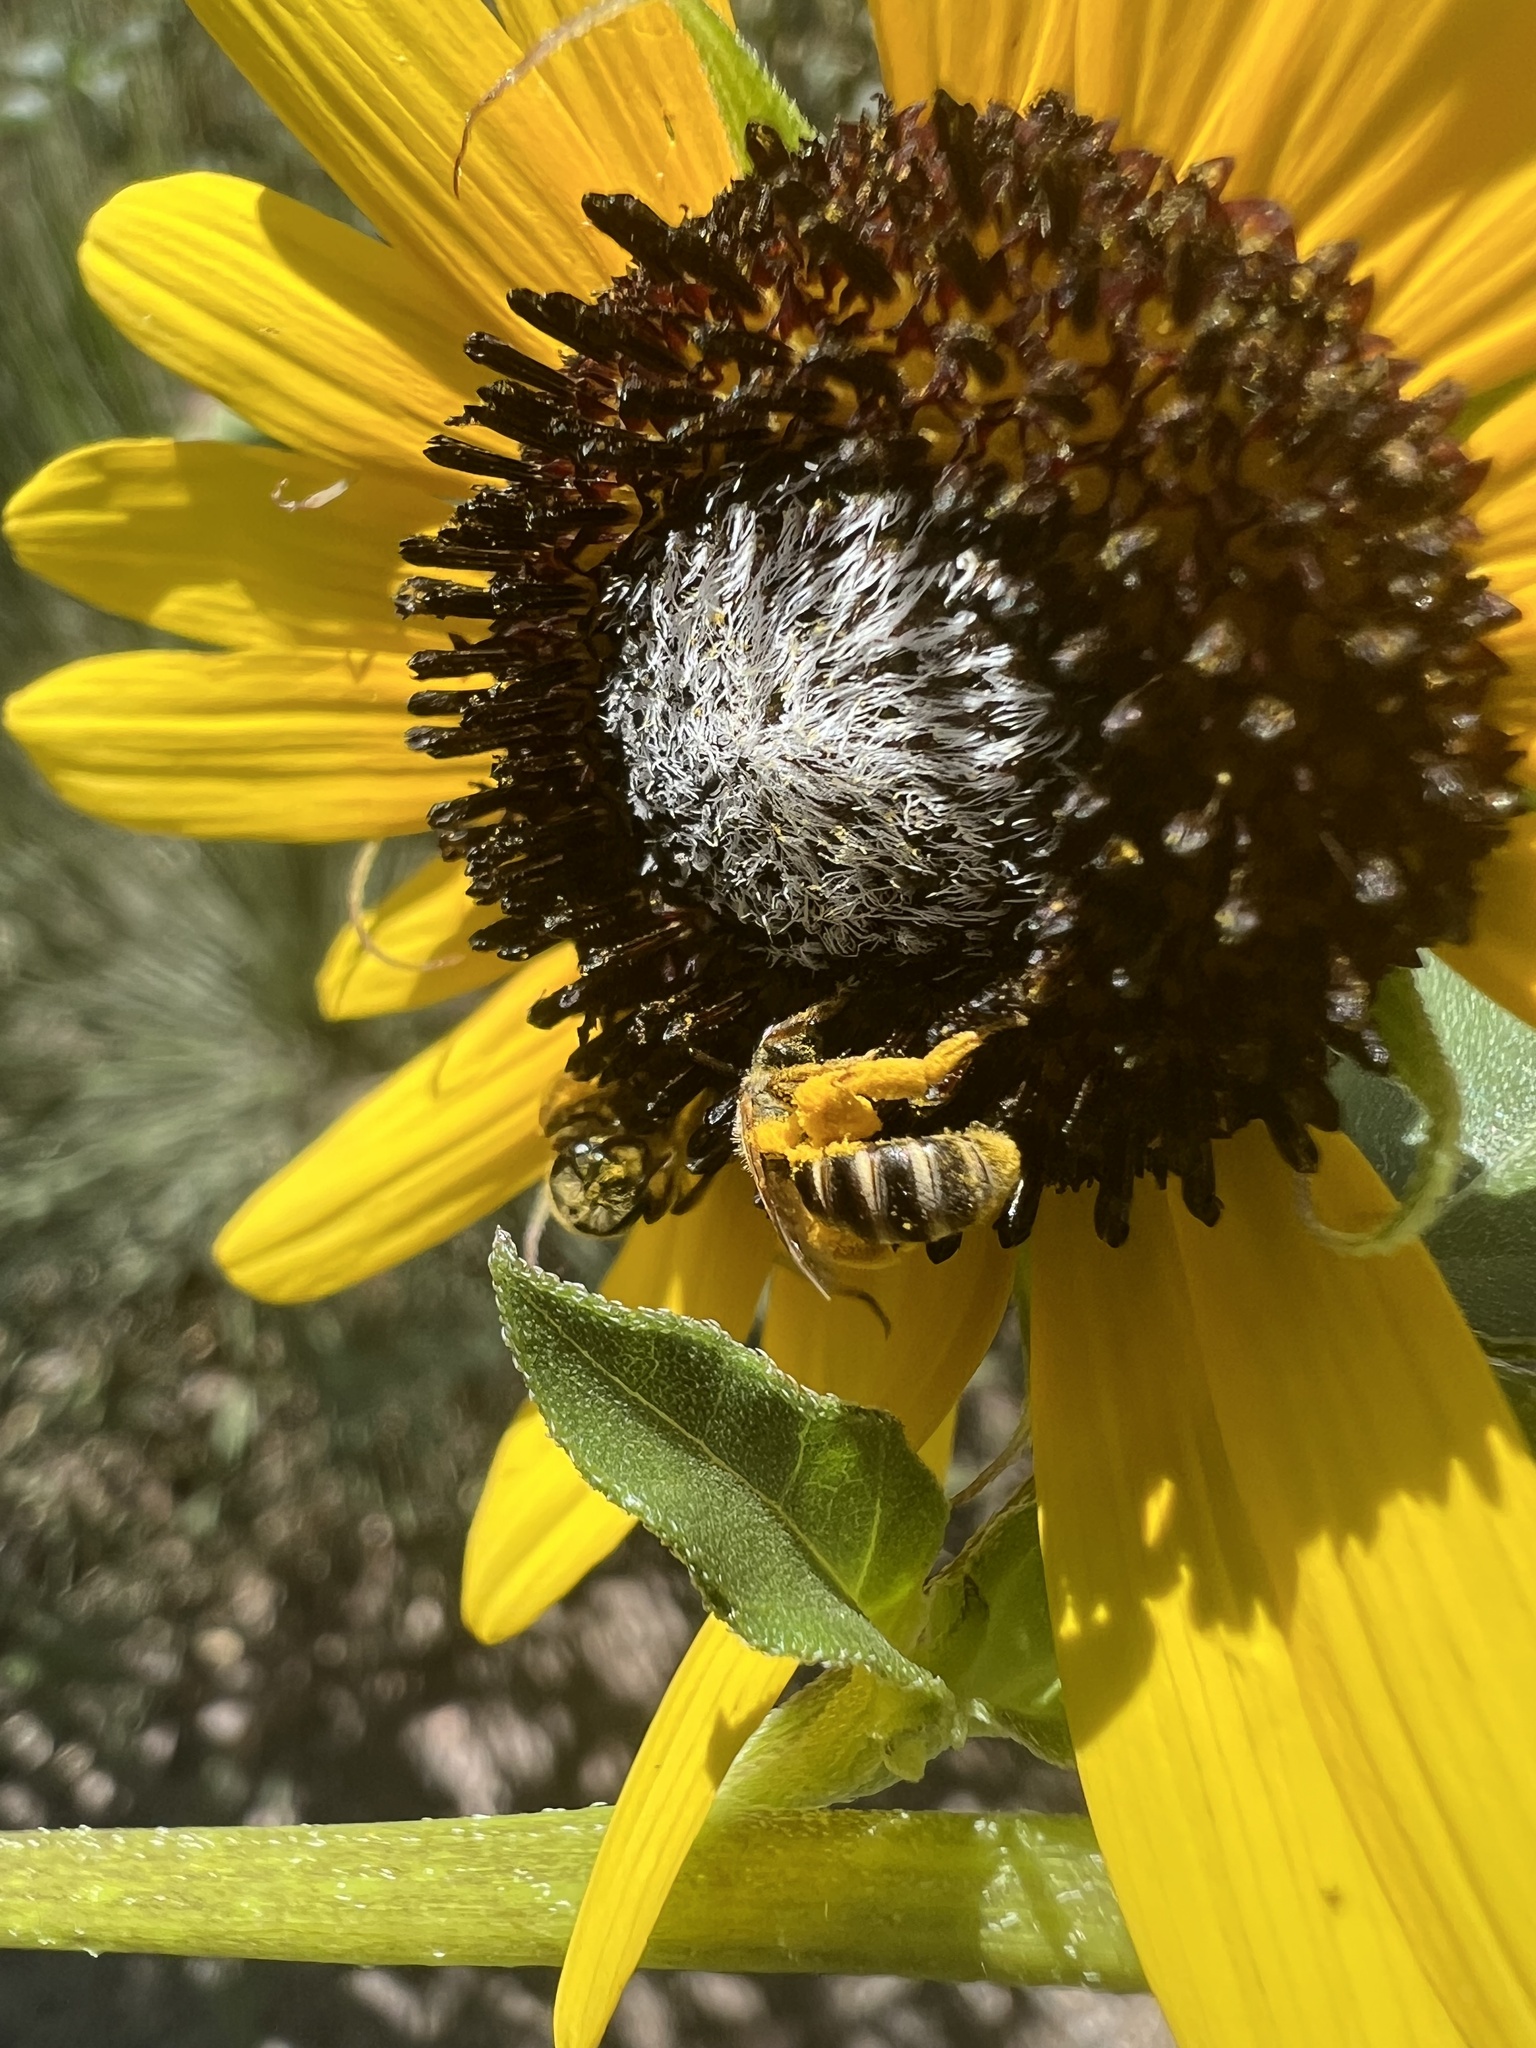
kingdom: Animalia
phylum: Arthropoda
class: Insecta
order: Hymenoptera
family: Halictidae
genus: Halictus
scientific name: Halictus ligatus
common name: Ligated furrow bee
